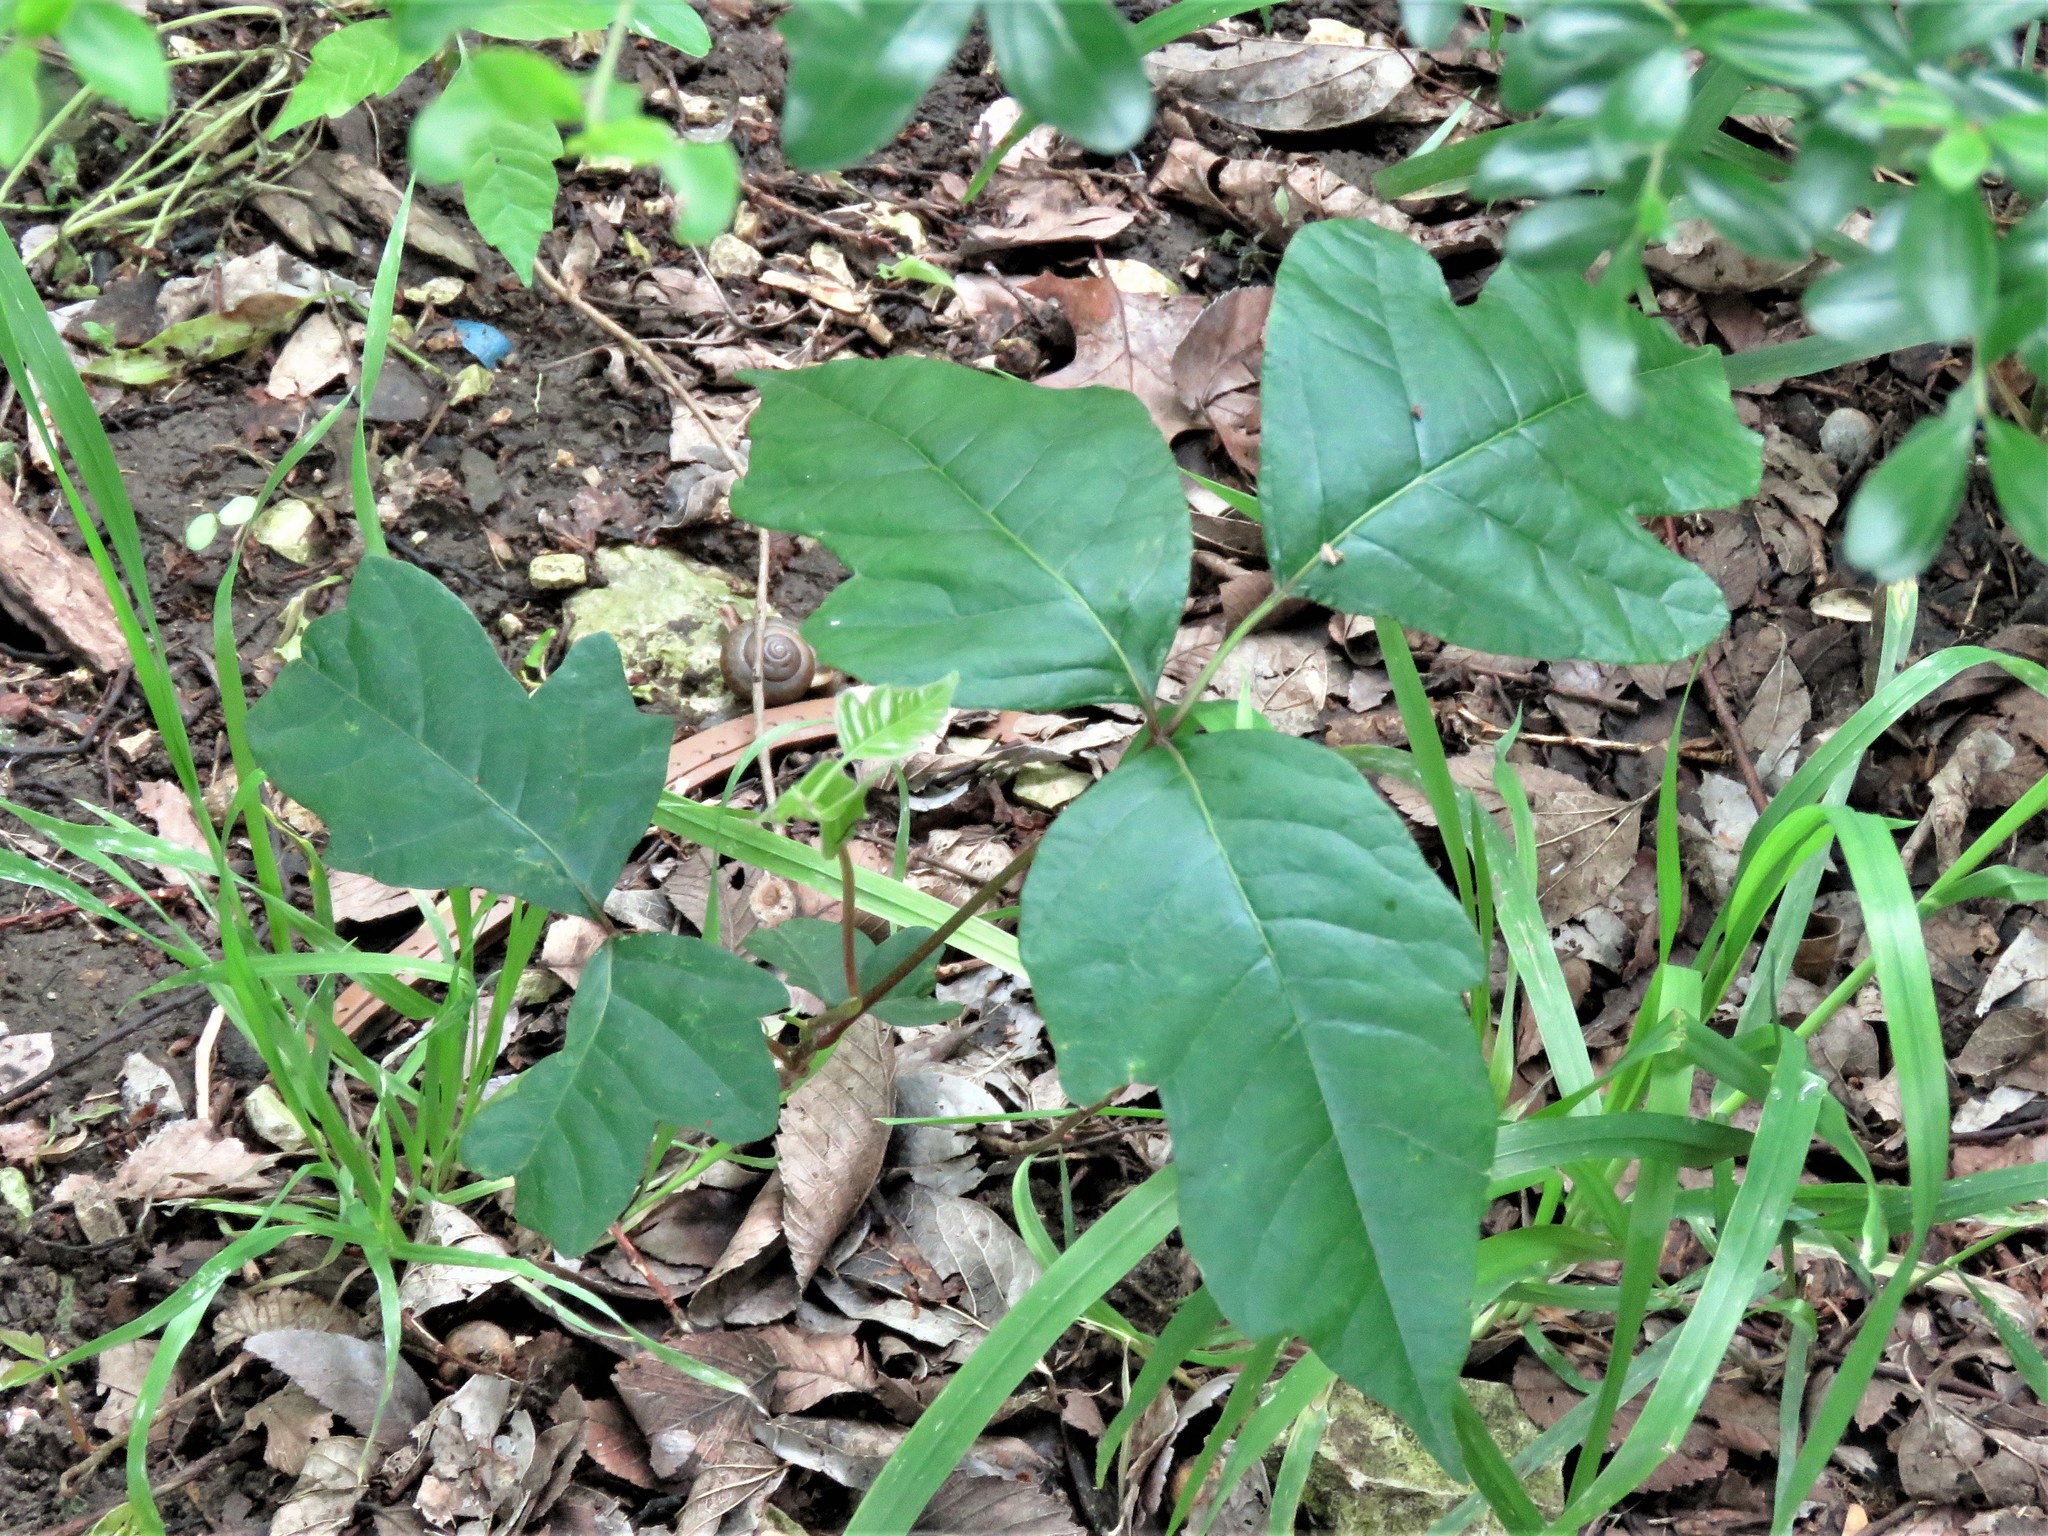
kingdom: Plantae
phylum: Tracheophyta
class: Magnoliopsida
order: Sapindales
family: Anacardiaceae
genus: Toxicodendron
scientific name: Toxicodendron radicans
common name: Poison ivy
